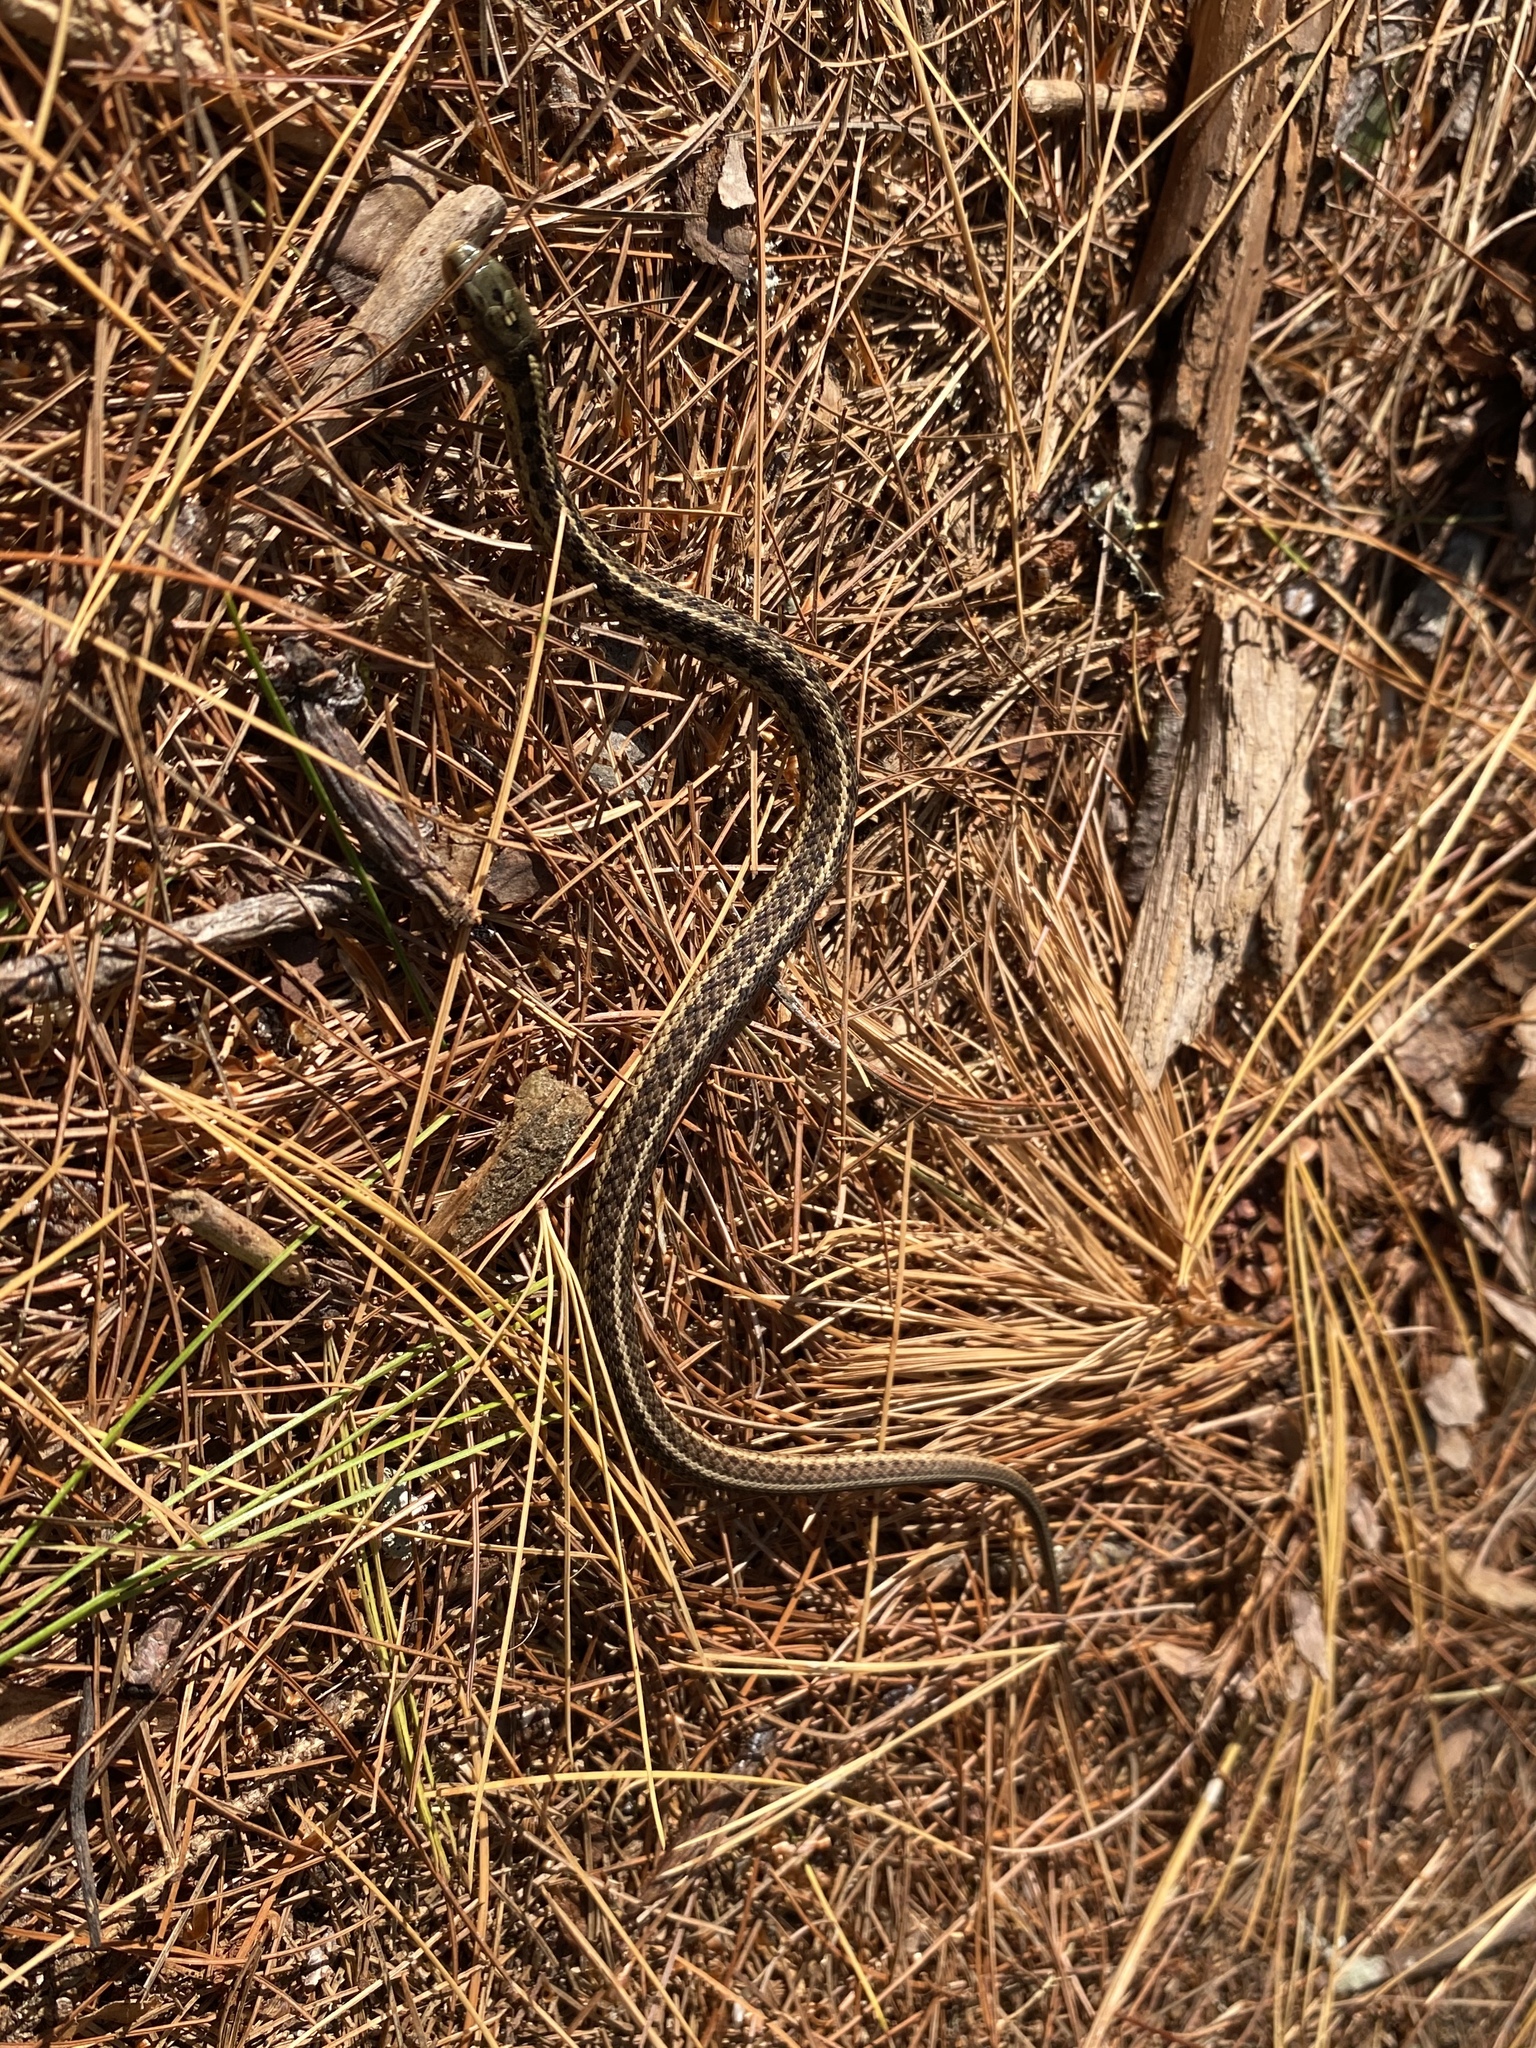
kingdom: Animalia
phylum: Chordata
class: Squamata
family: Colubridae
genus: Thamnophis
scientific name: Thamnophis sirtalis
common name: Common garter snake
